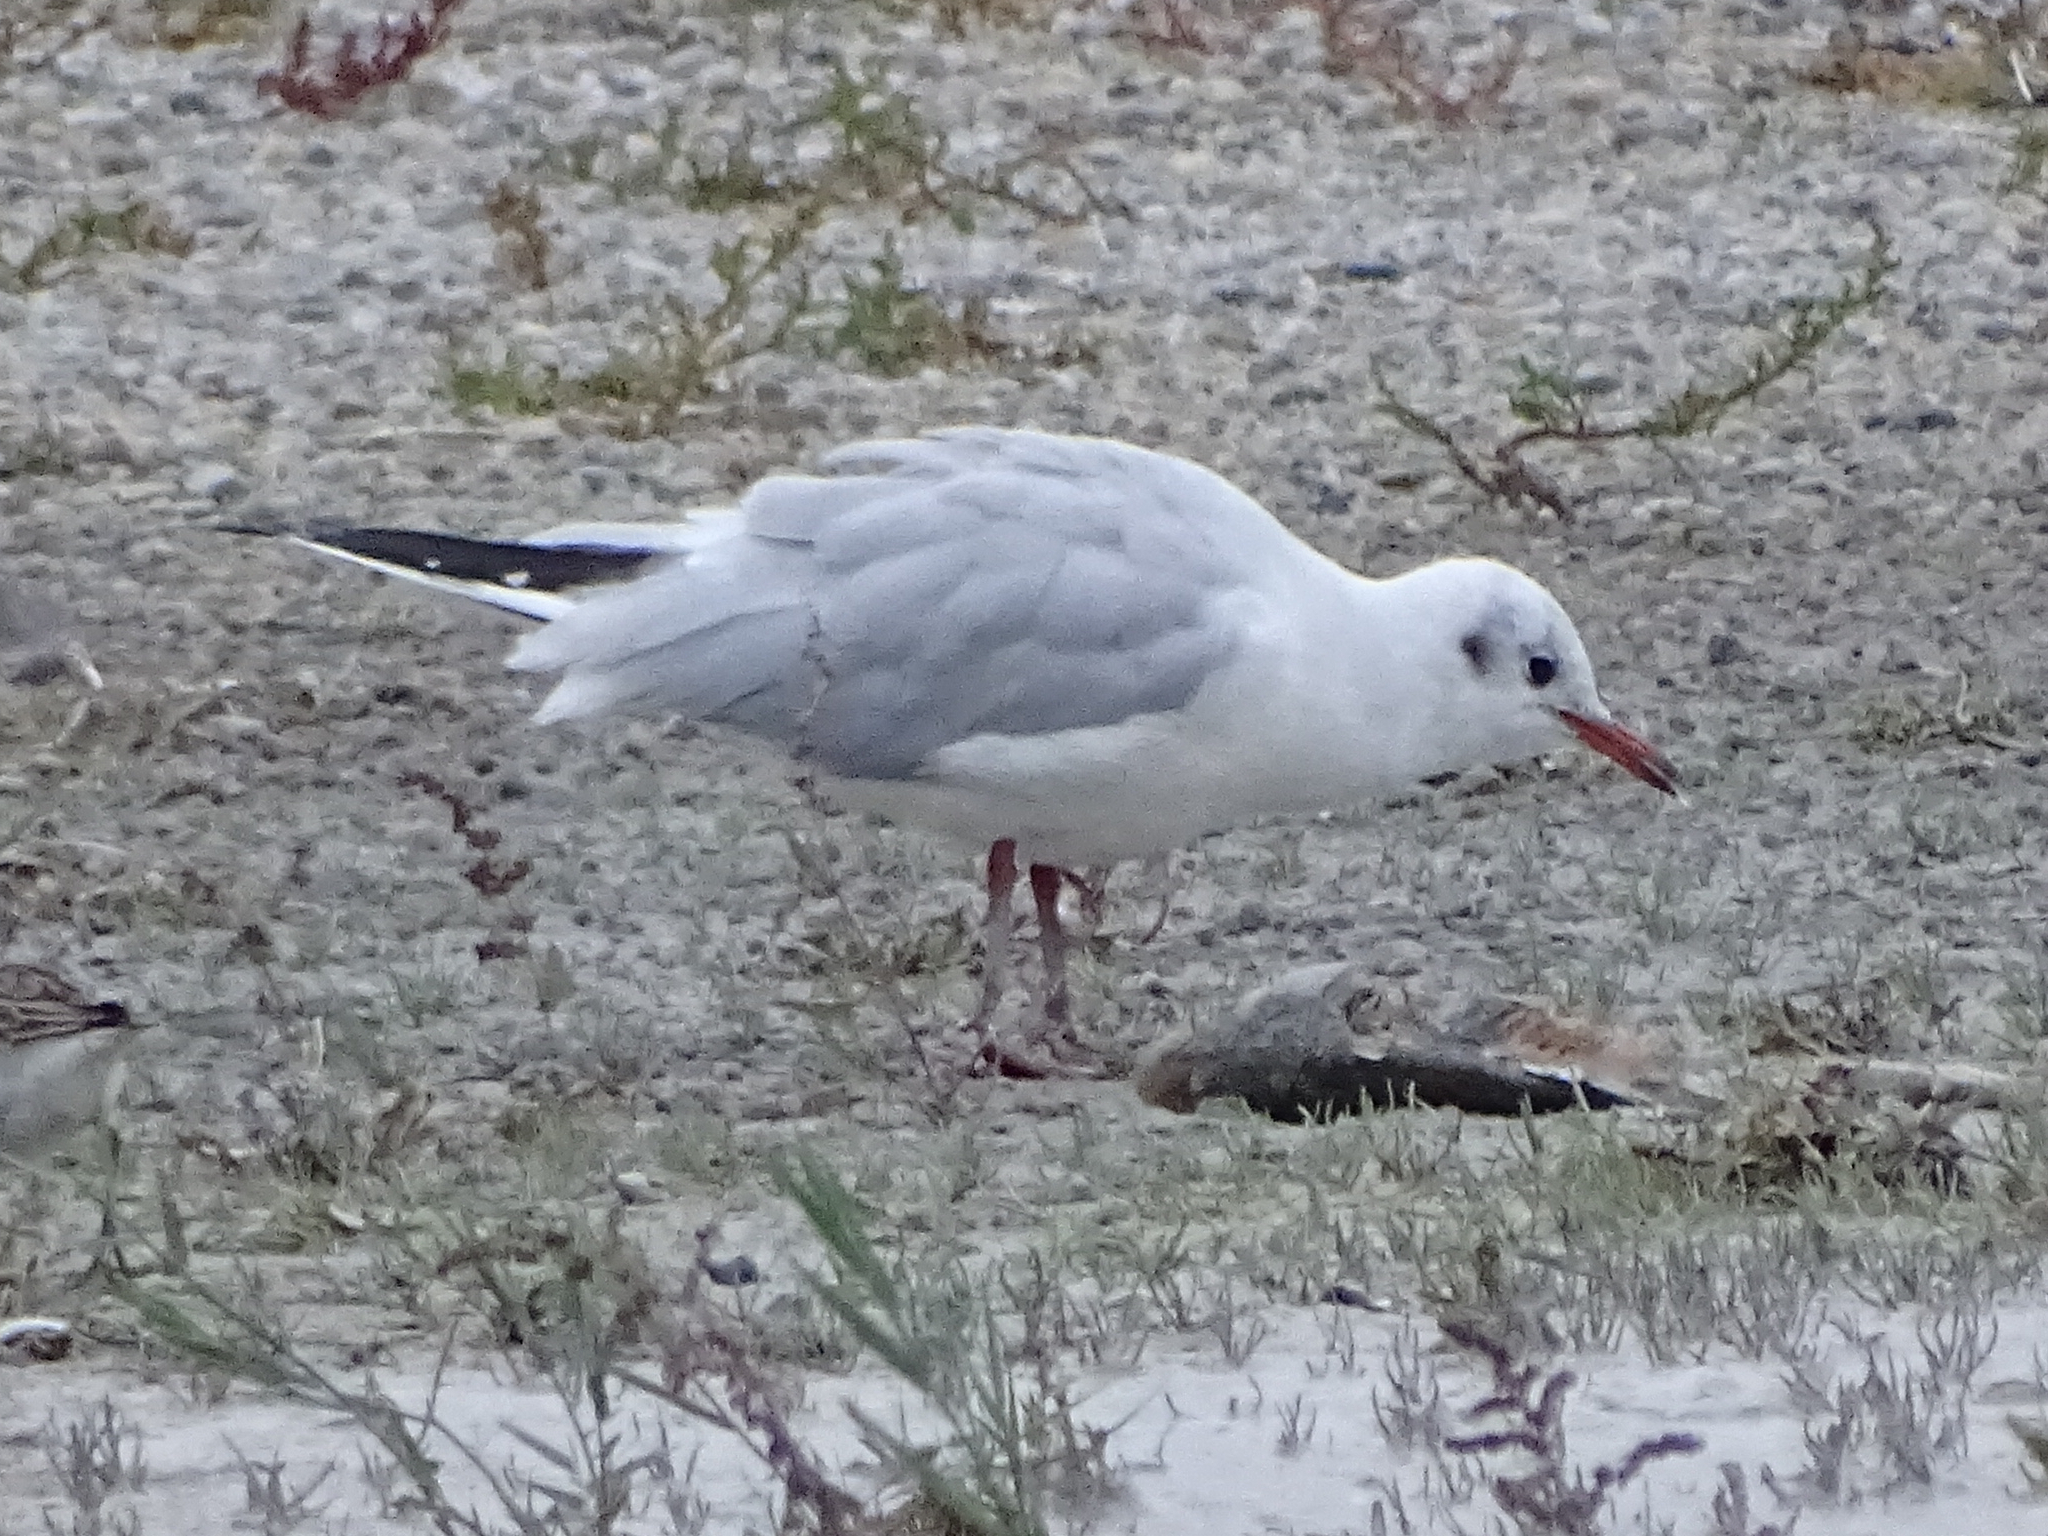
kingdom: Animalia
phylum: Chordata
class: Aves
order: Charadriiformes
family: Laridae
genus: Chroicocephalus
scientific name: Chroicocephalus ridibundus
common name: Black-headed gull
